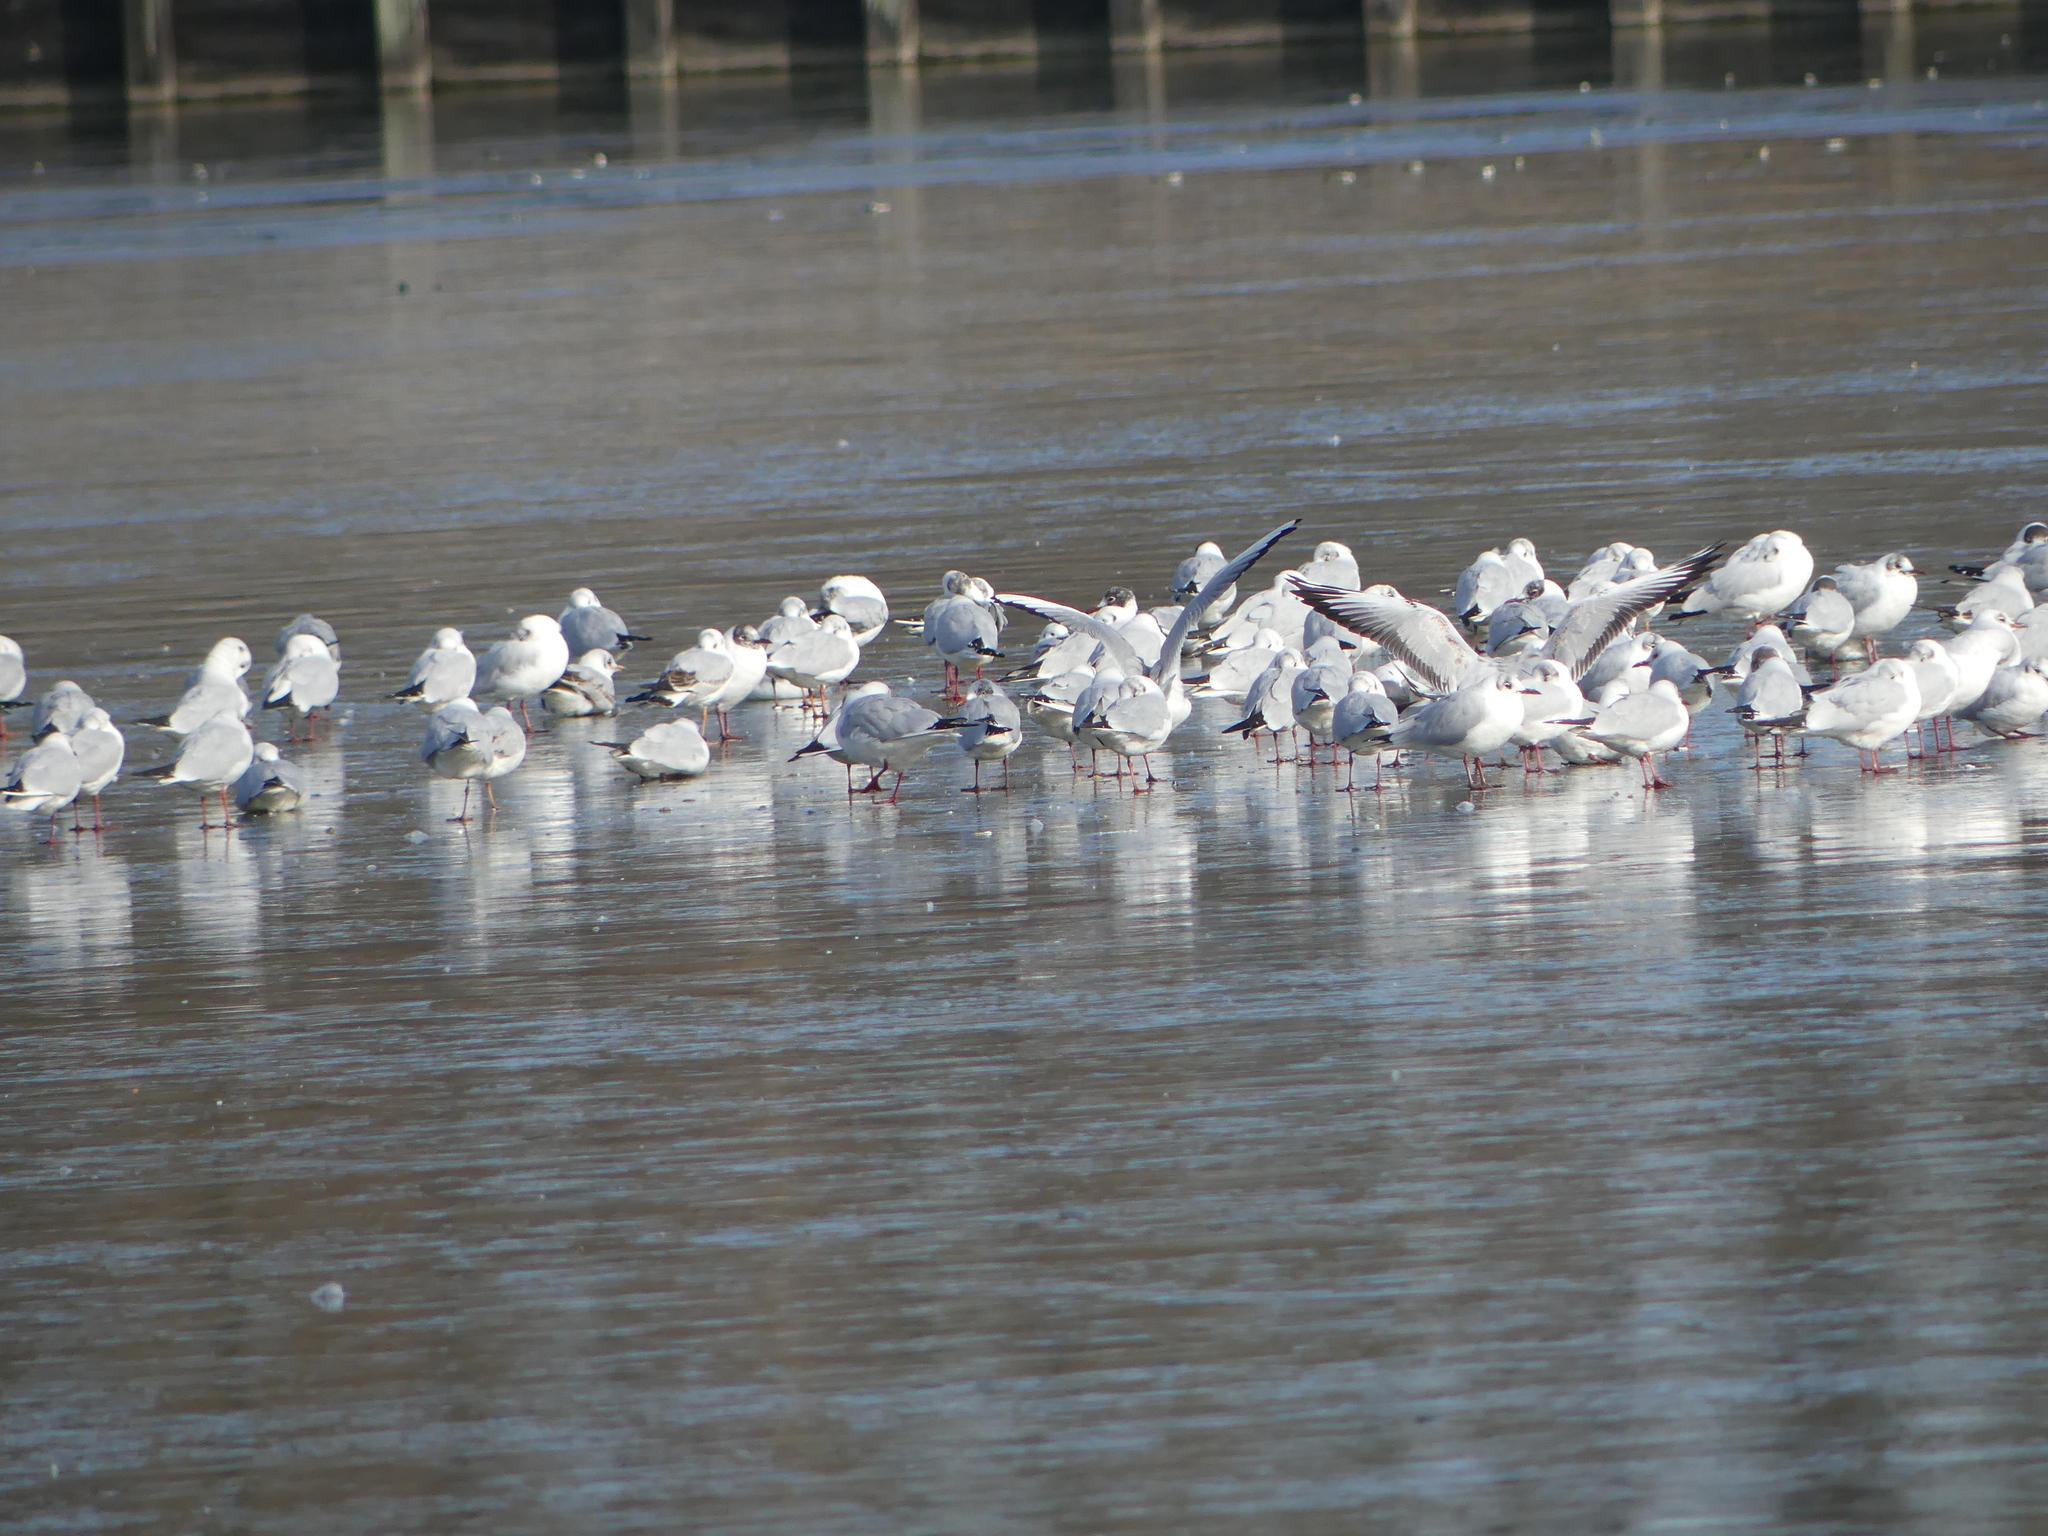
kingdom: Animalia
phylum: Chordata
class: Aves
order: Charadriiformes
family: Laridae
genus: Chroicocephalus
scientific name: Chroicocephalus ridibundus
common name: Black-headed gull
